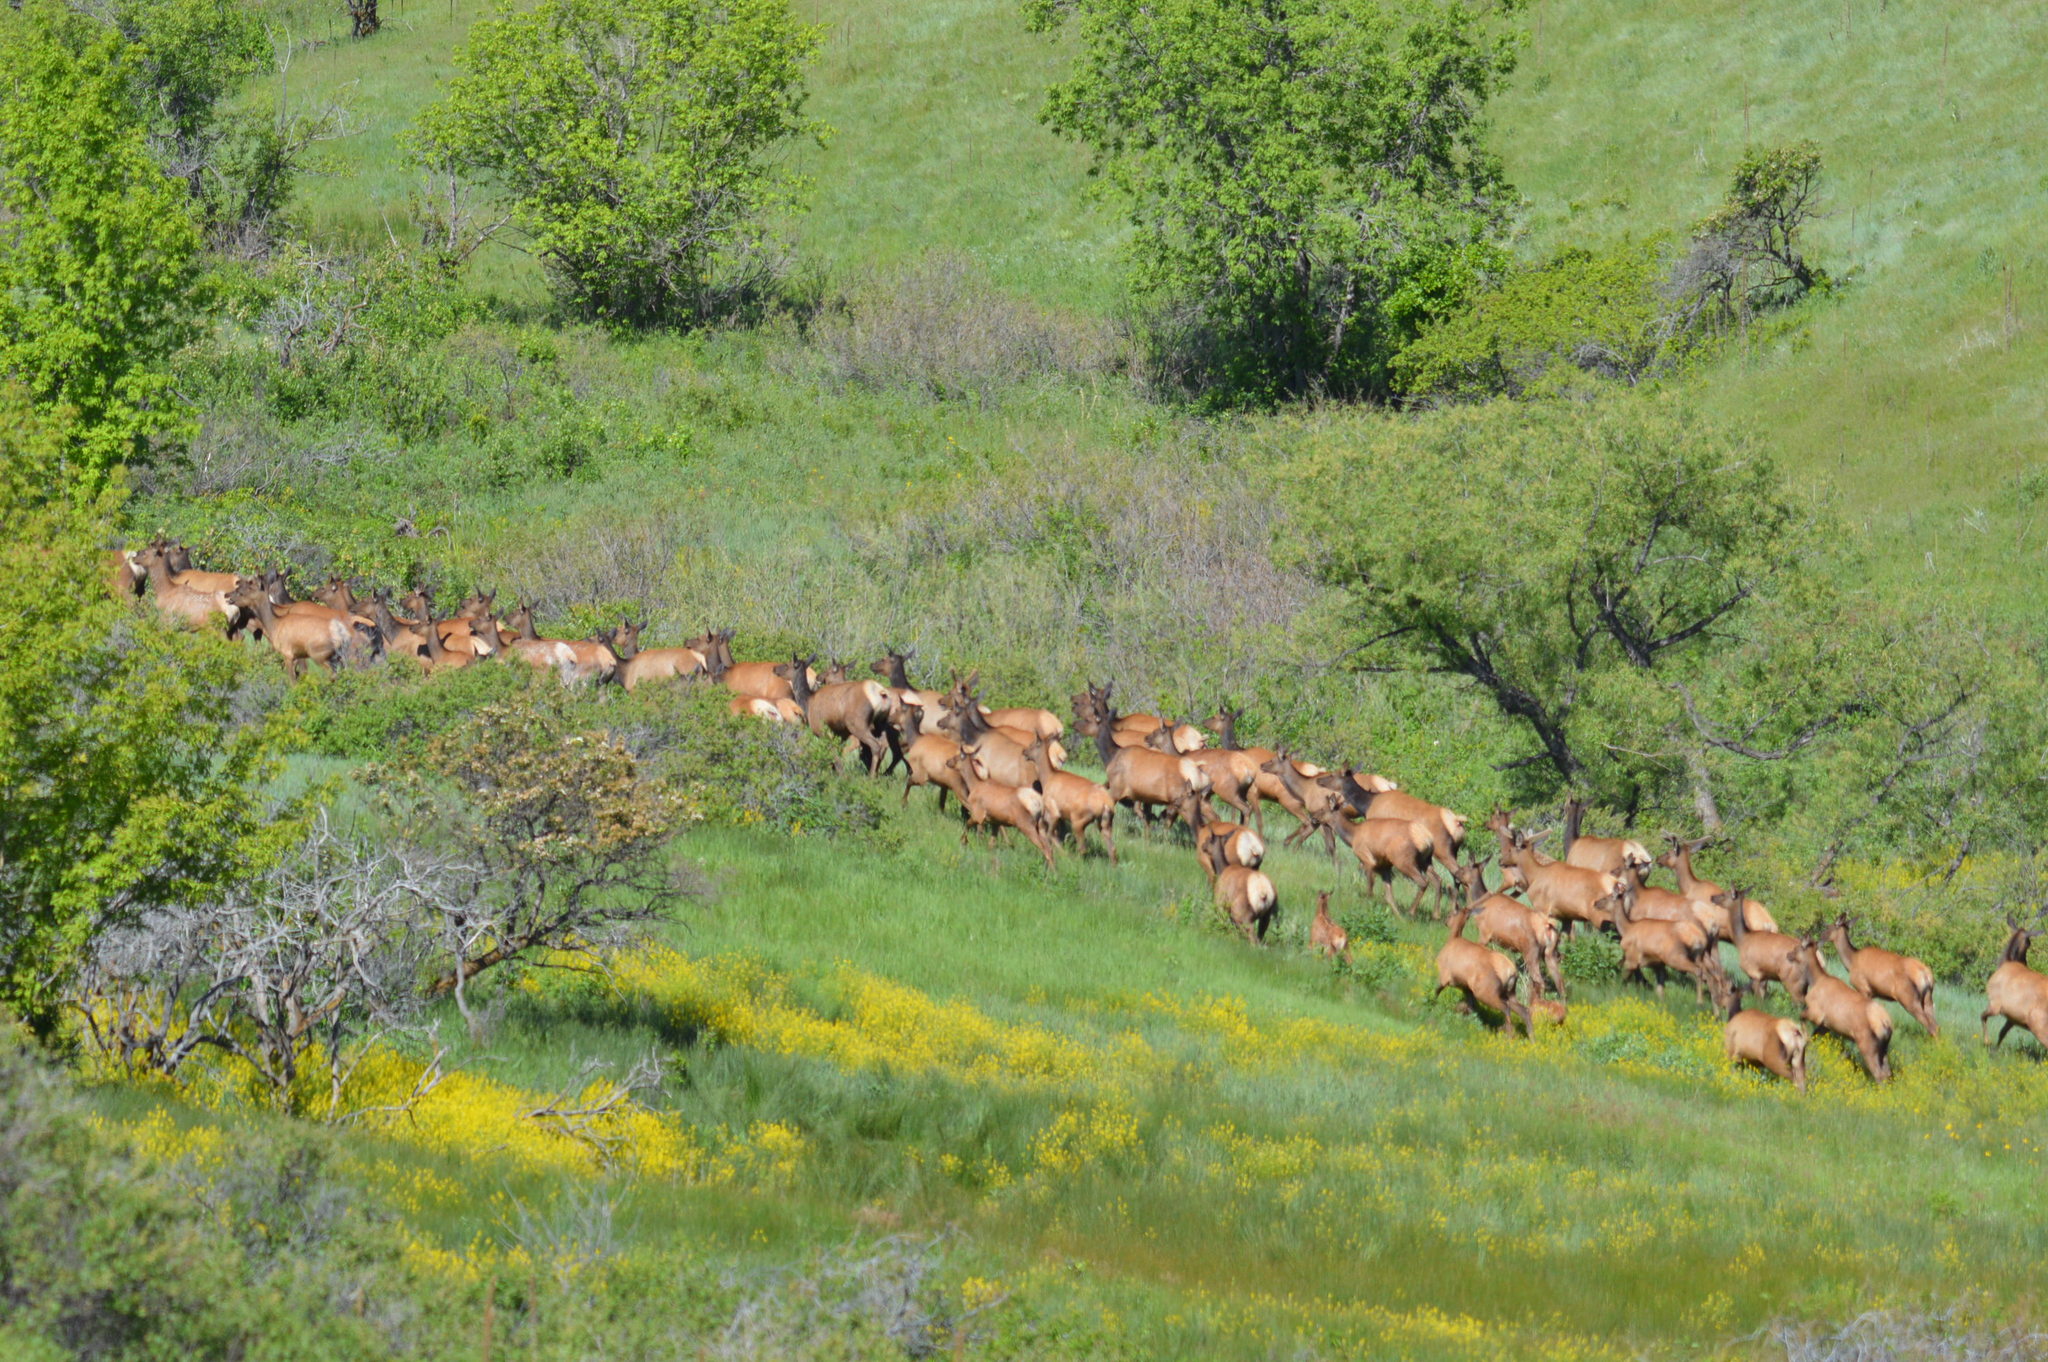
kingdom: Animalia
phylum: Chordata
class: Mammalia
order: Artiodactyla
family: Cervidae
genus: Cervus
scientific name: Cervus elaphus
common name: Red deer
